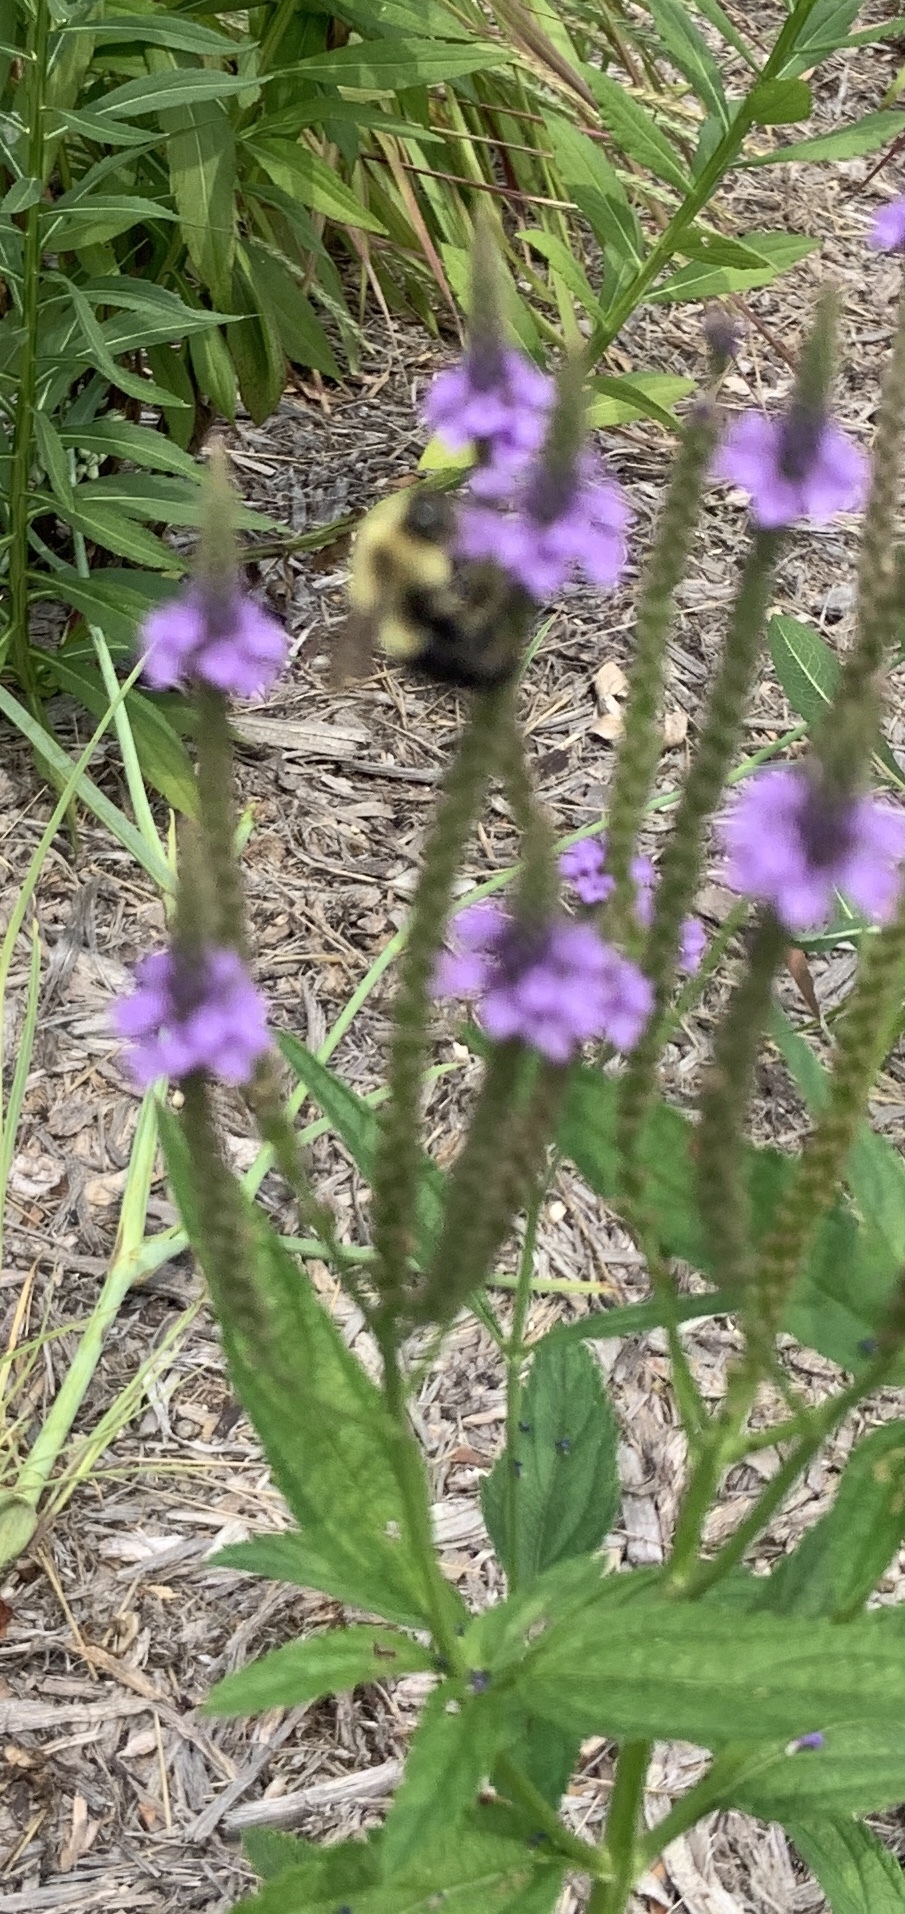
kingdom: Animalia
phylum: Arthropoda
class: Insecta
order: Hymenoptera
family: Apidae
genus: Bombus
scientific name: Bombus impatiens
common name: Common eastern bumble bee
